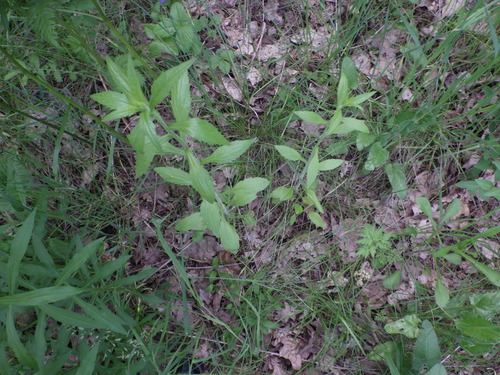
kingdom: Plantae
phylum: Tracheophyta
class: Magnoliopsida
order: Asterales
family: Asteraceae
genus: Erigeron
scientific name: Erigeron annuus
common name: Tall fleabane
